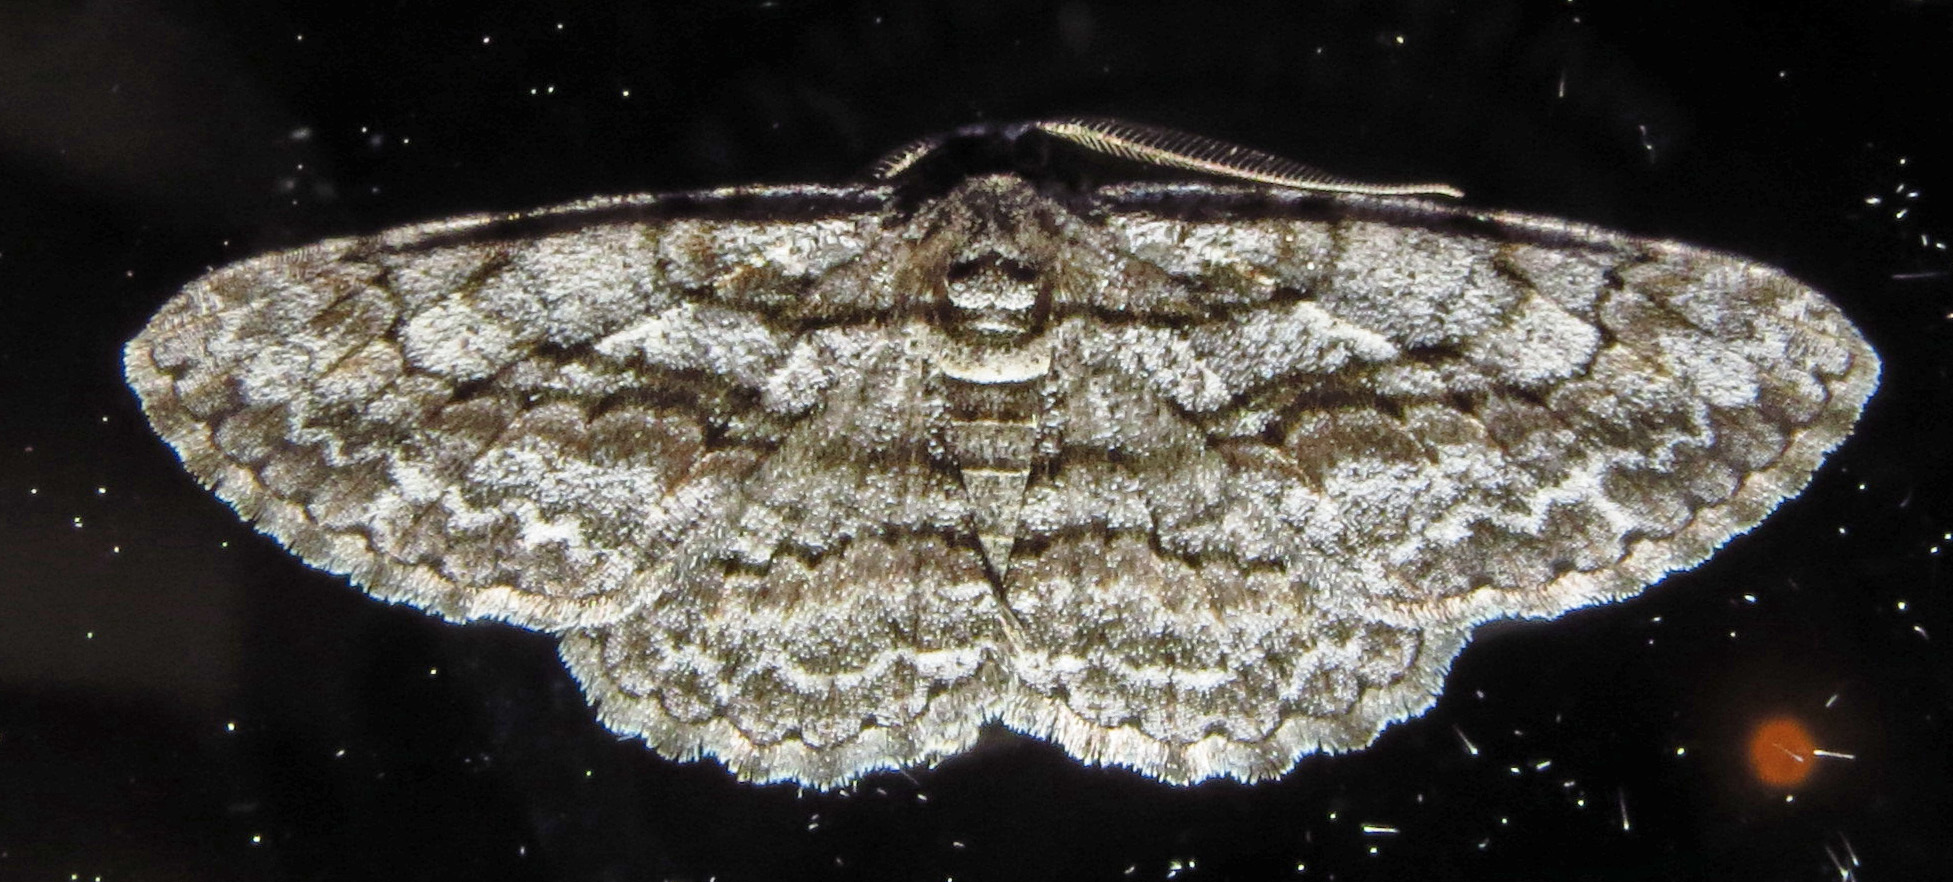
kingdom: Animalia
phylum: Arthropoda
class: Insecta
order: Lepidoptera
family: Geometridae
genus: Anavitrinella
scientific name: Anavitrinella pampinaria
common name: Common gray
